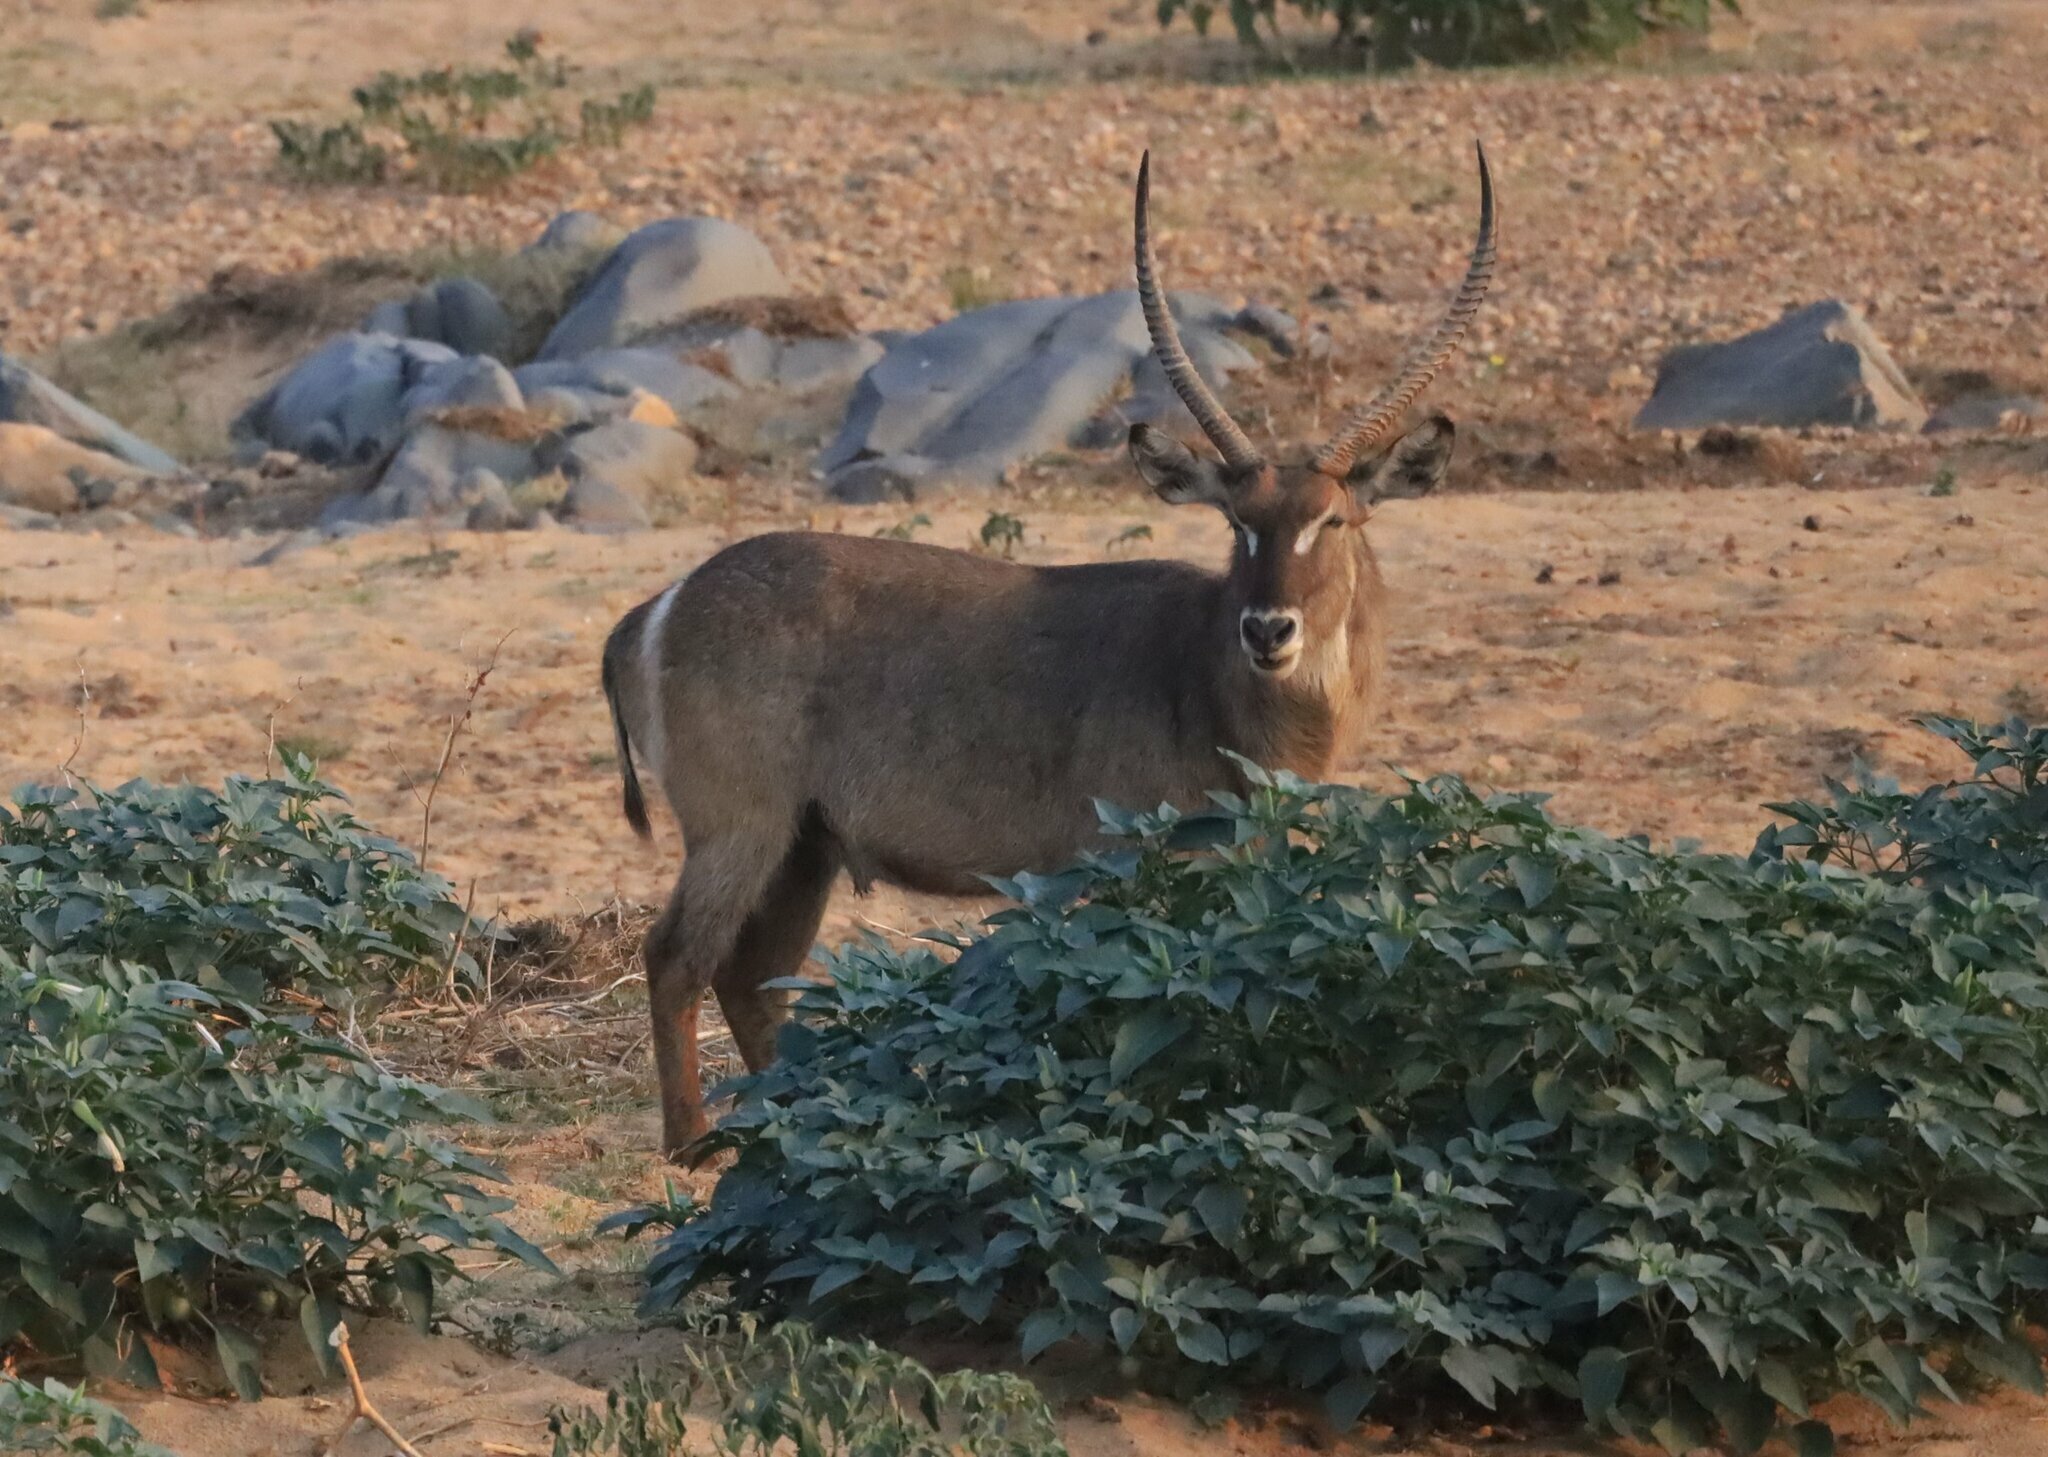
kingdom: Animalia
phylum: Chordata
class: Mammalia
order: Artiodactyla
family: Bovidae
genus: Kobus
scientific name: Kobus ellipsiprymnus
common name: Waterbuck
